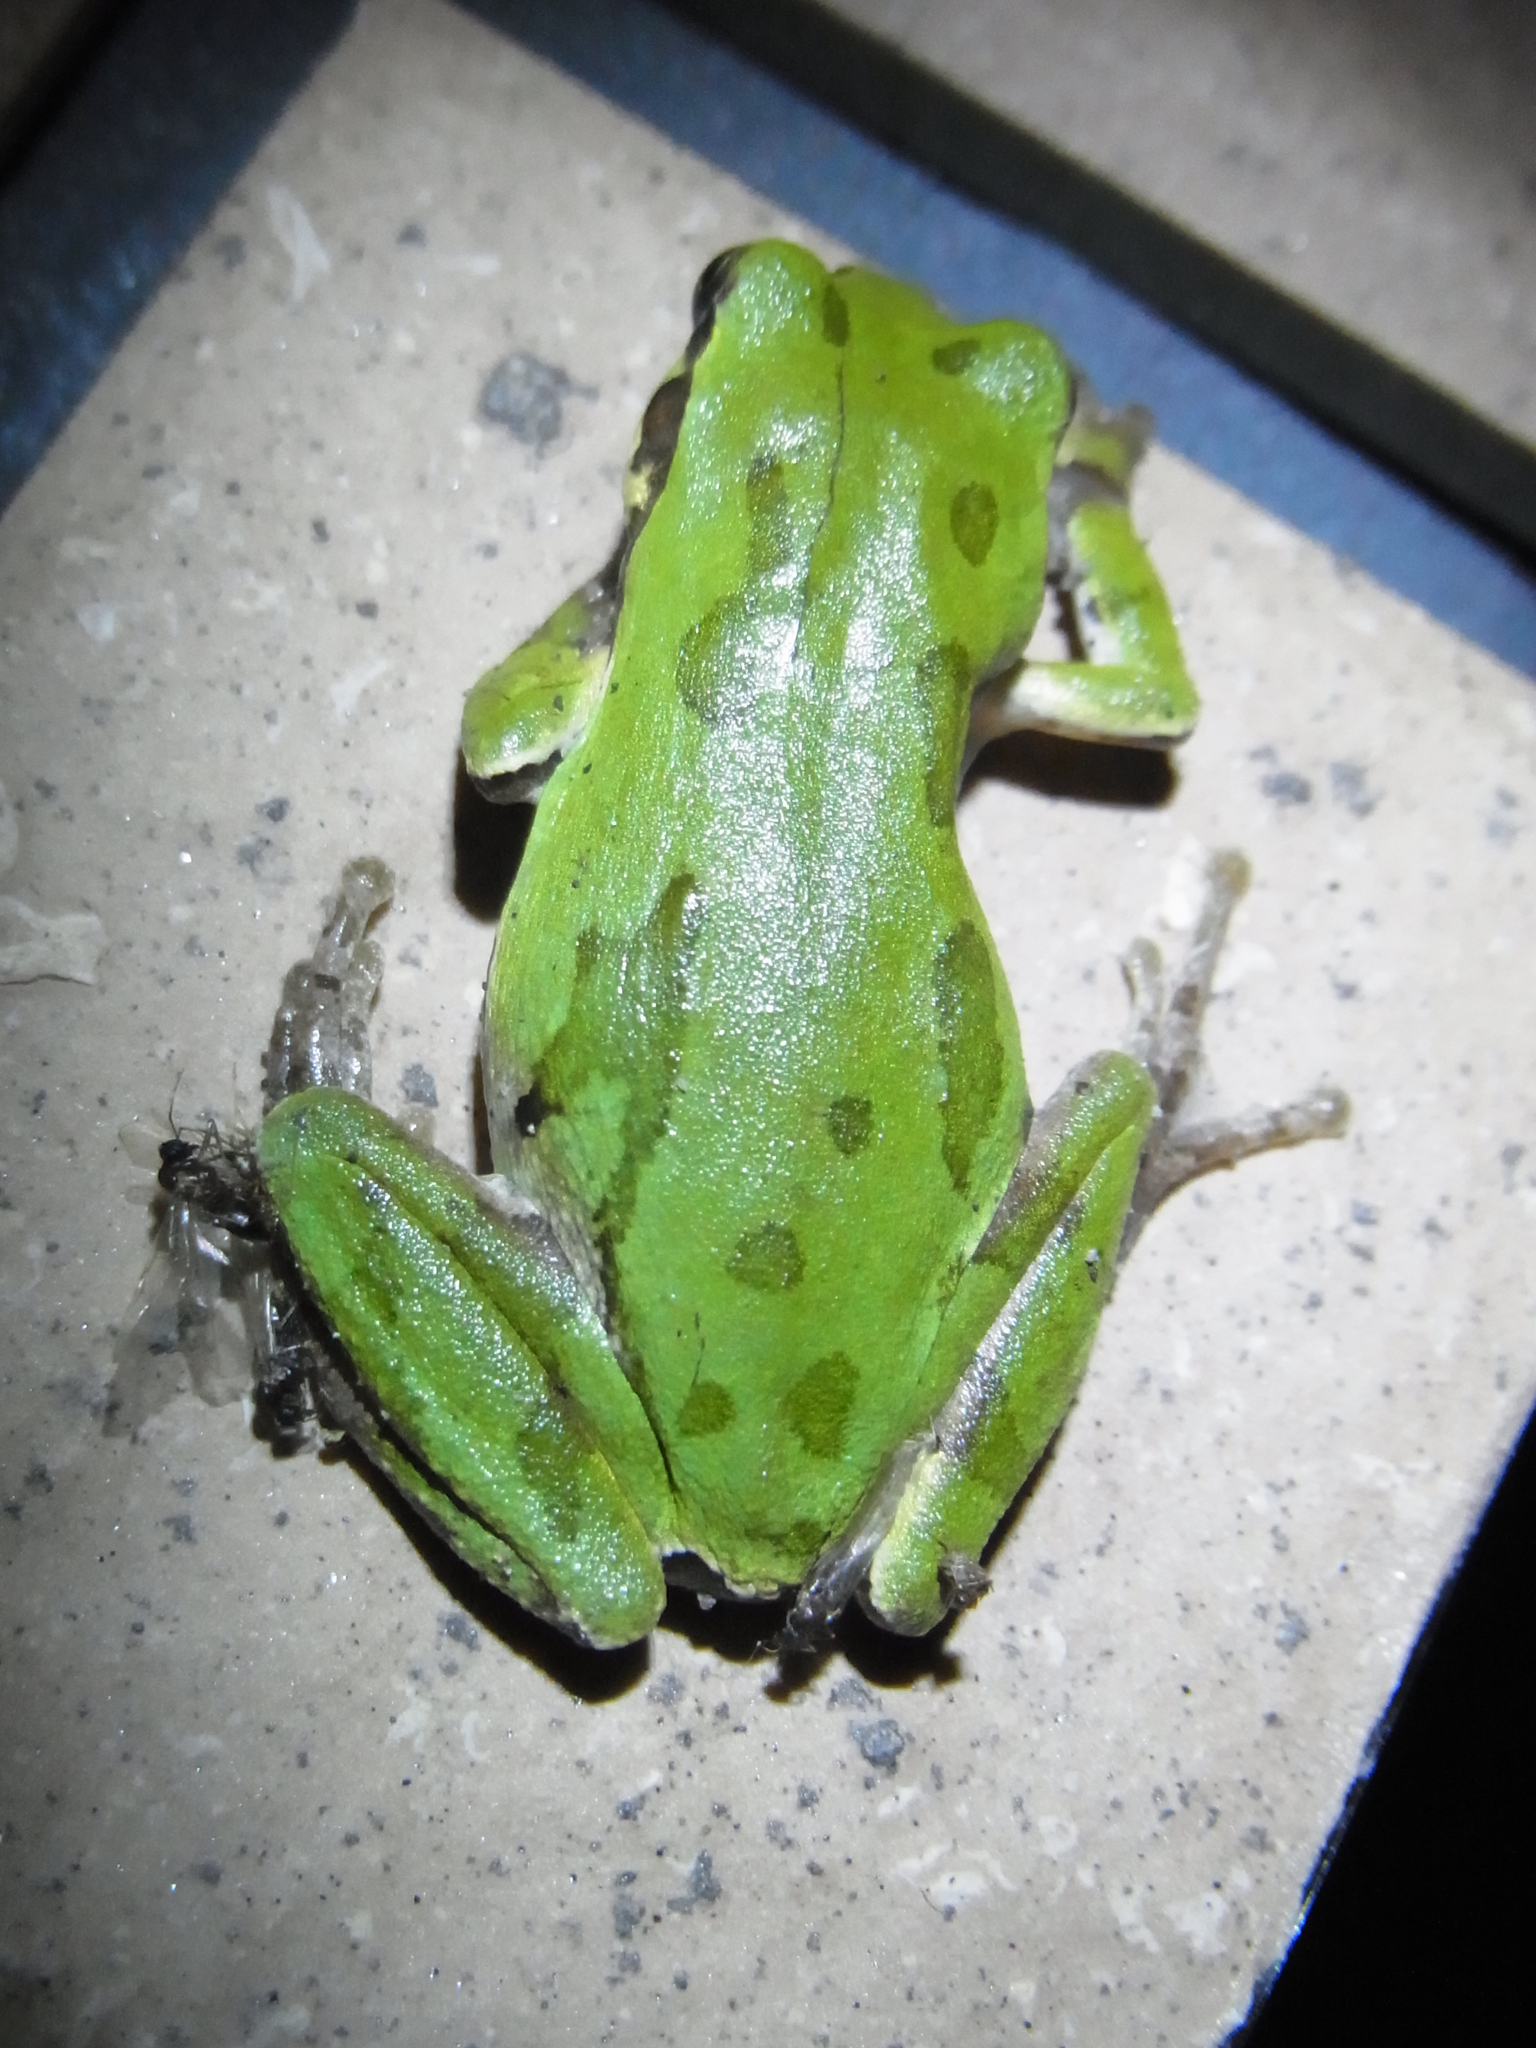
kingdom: Animalia
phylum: Chordata
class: Amphibia
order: Anura
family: Hylidae
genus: Dryophytes
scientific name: Dryophytes japonicus
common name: Japanese treefrog
